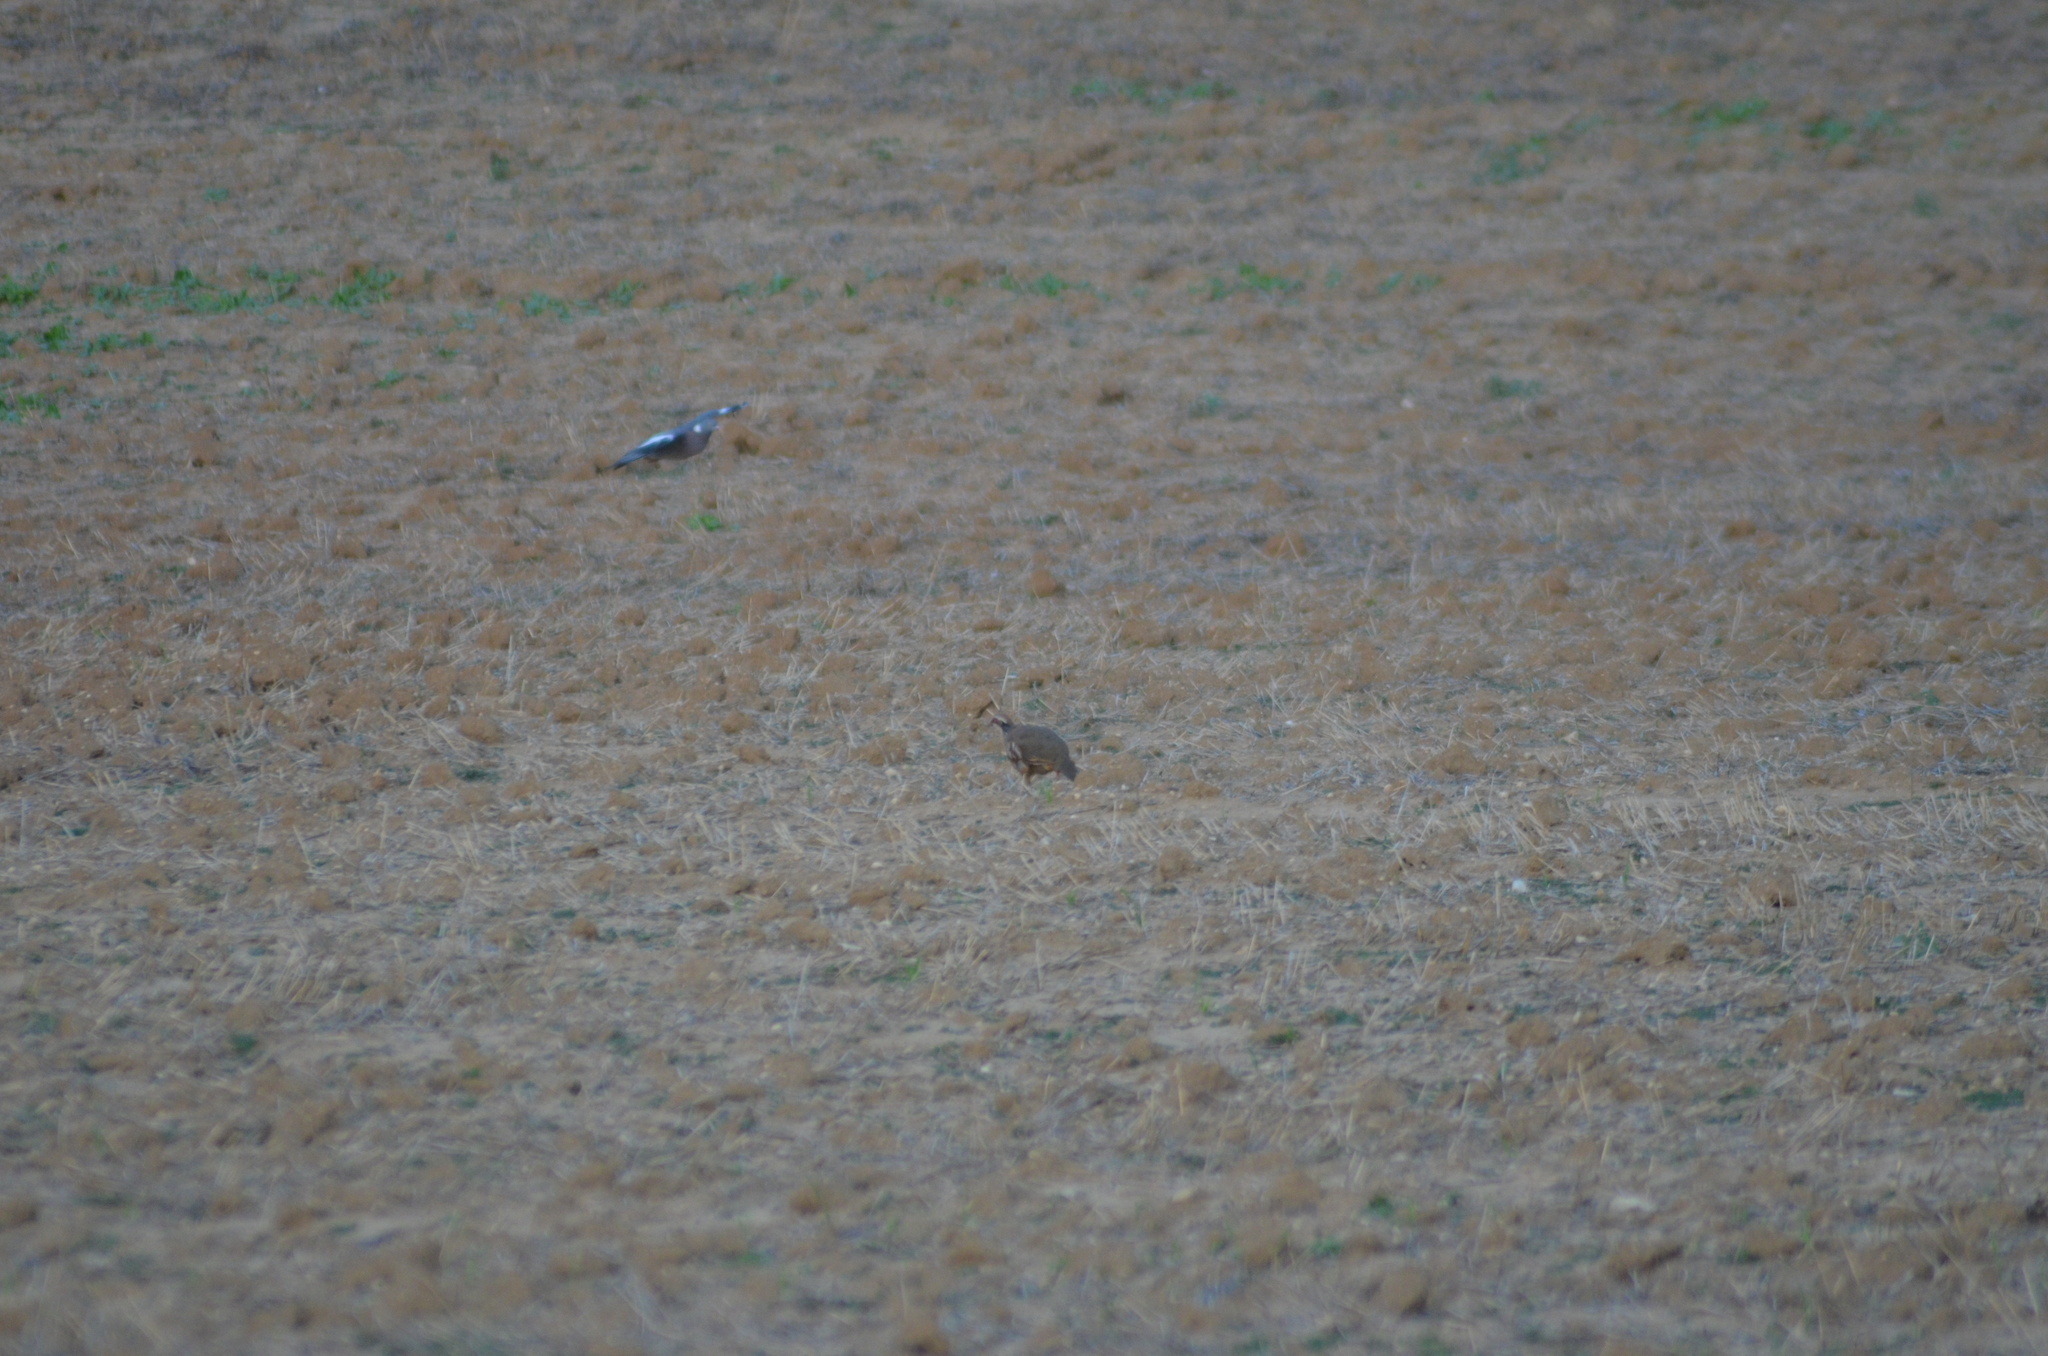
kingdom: Animalia
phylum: Chordata
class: Aves
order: Galliformes
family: Phasianidae
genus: Alectoris
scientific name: Alectoris rufa
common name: Red-legged partridge
